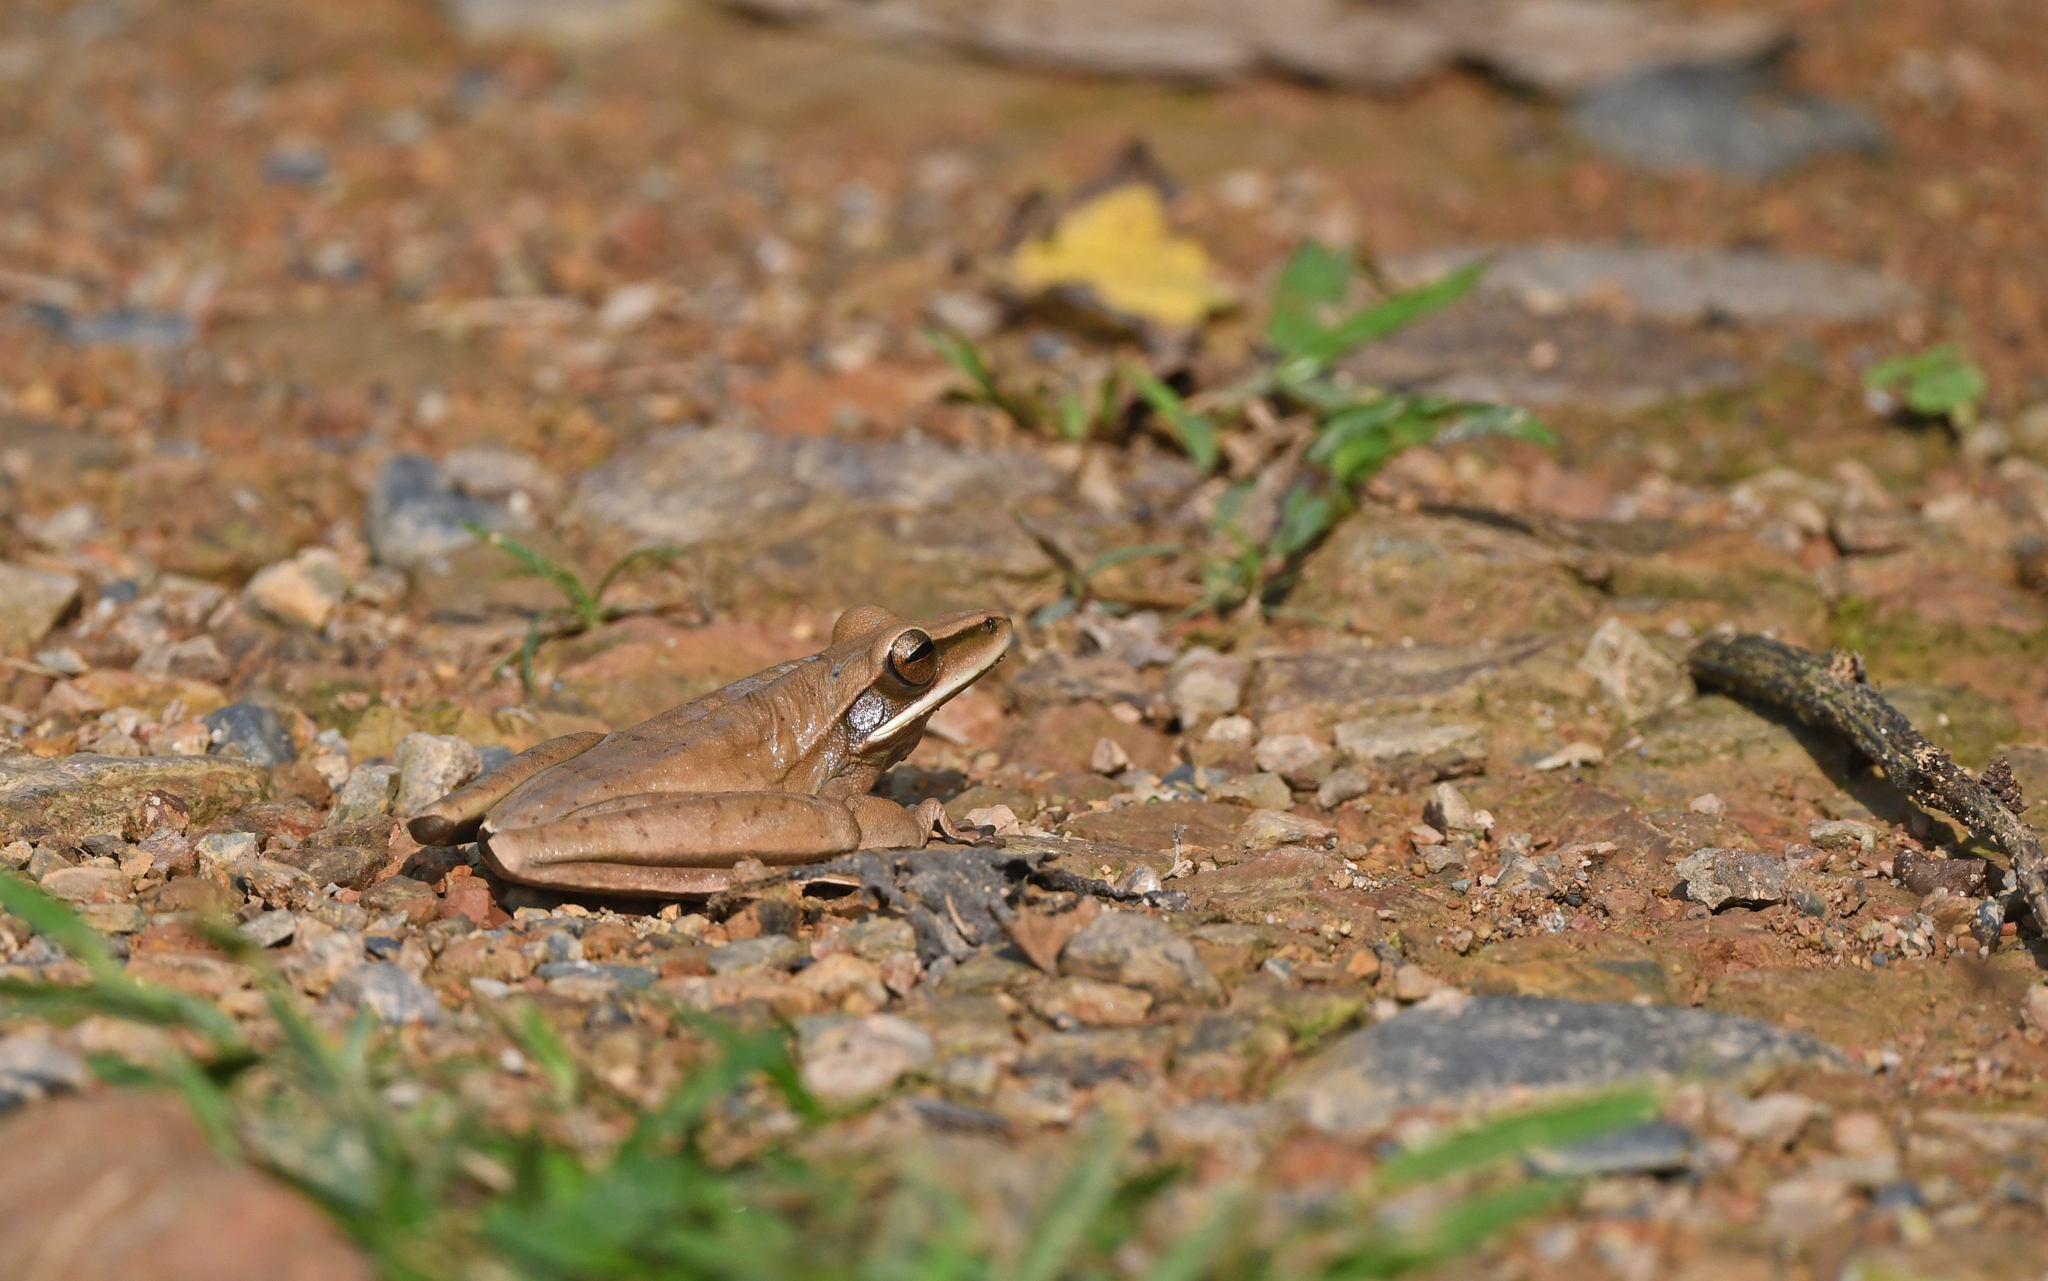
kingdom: Animalia
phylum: Chordata
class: Amphibia
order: Anura
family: Hylidae
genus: Boana
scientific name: Boana lanciformis
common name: Rana lanceolada commún
